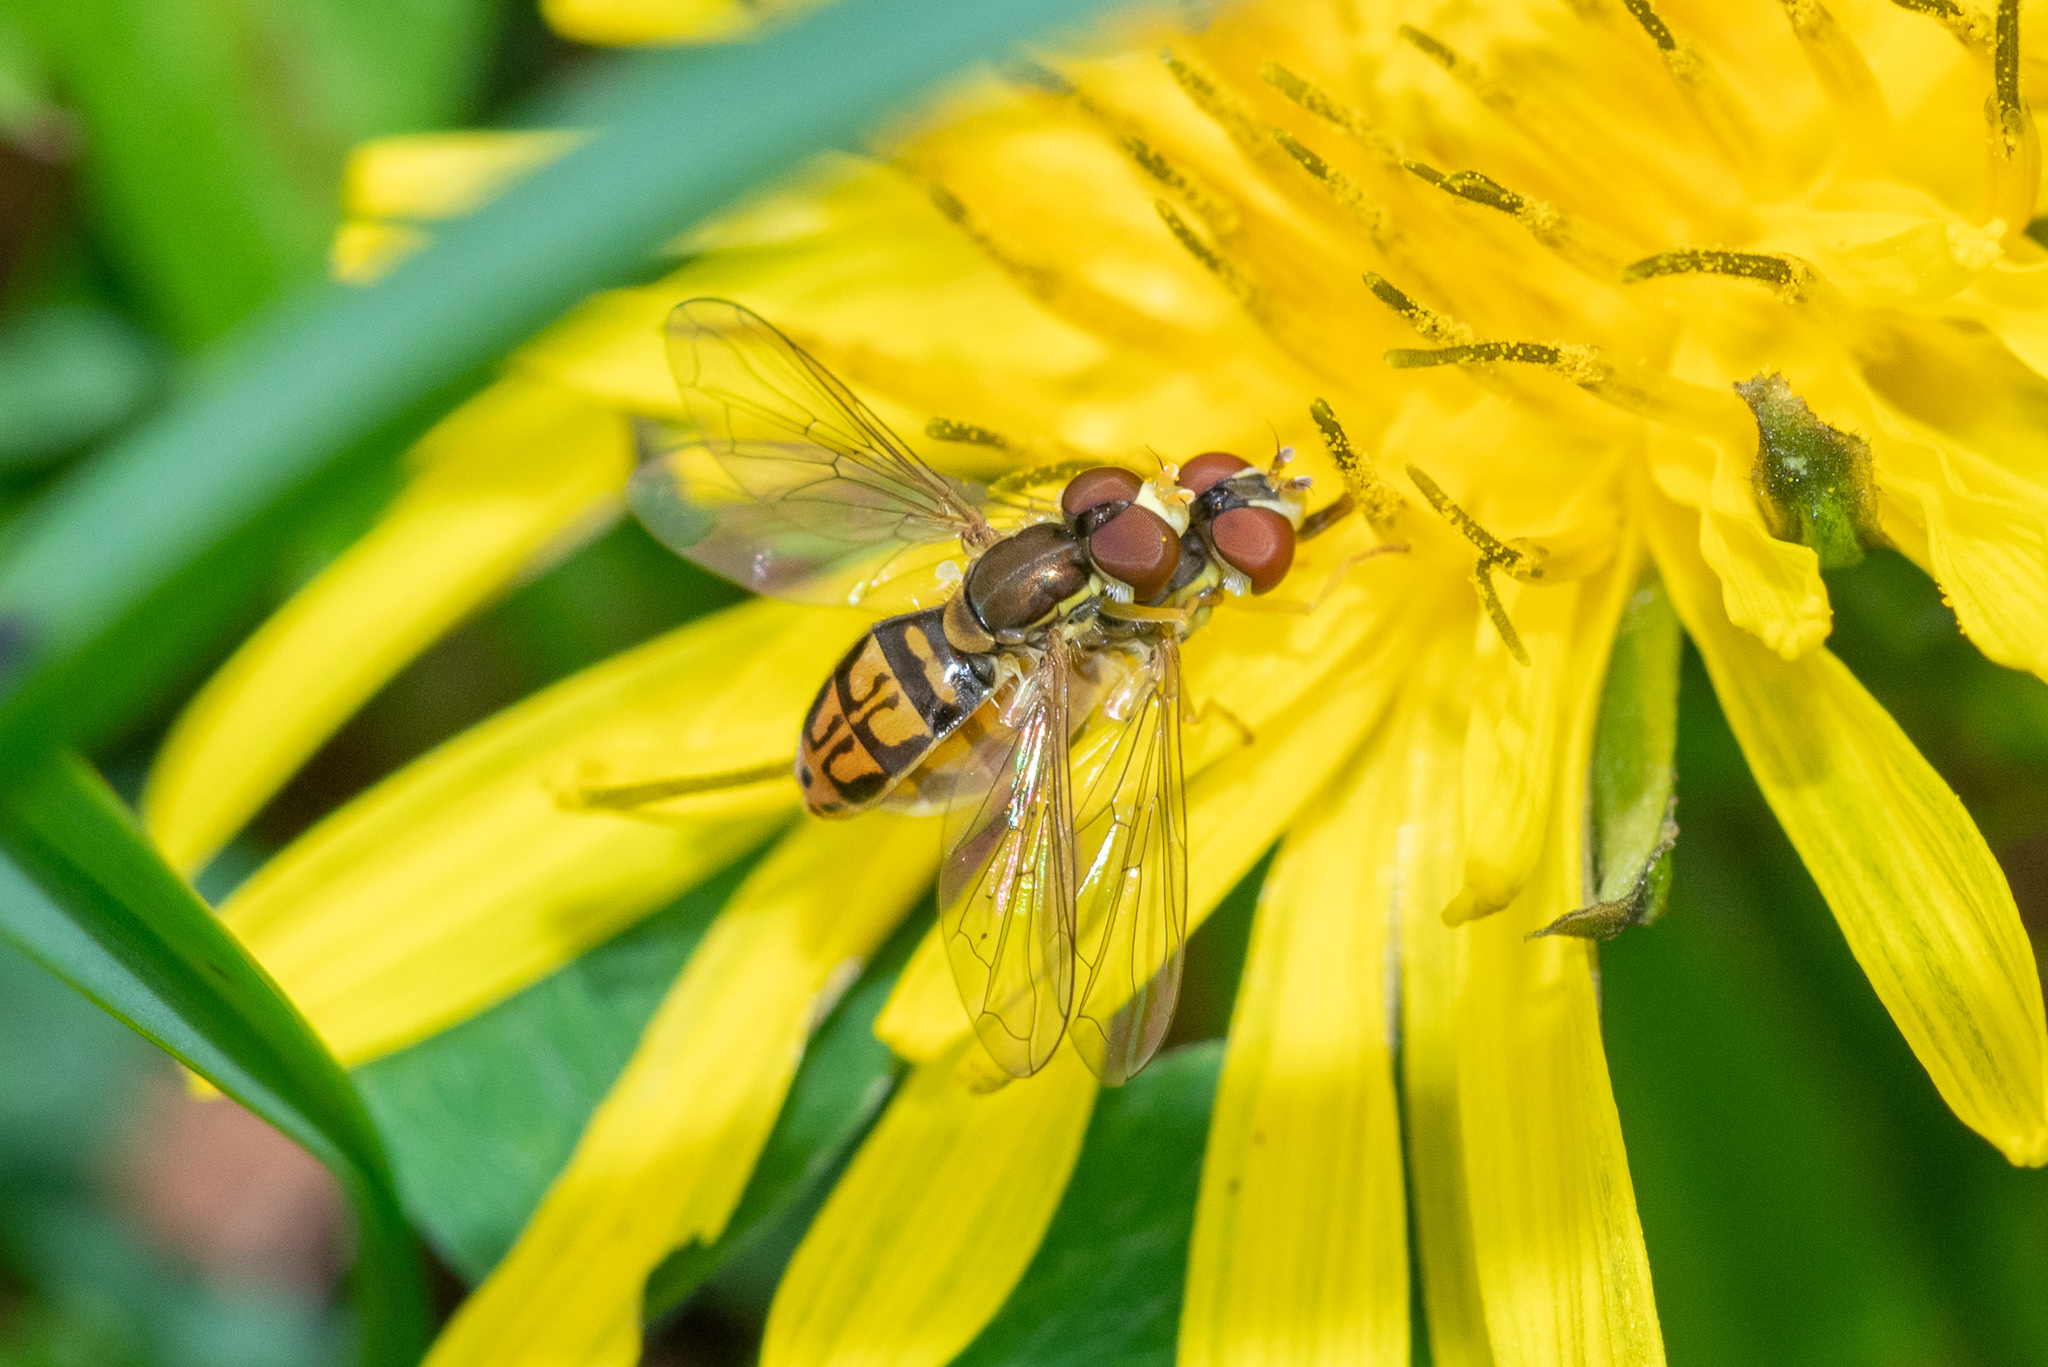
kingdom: Animalia
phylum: Arthropoda
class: Insecta
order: Diptera
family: Syrphidae
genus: Toxomerus
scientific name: Toxomerus marginatus
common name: Syrphid fly
